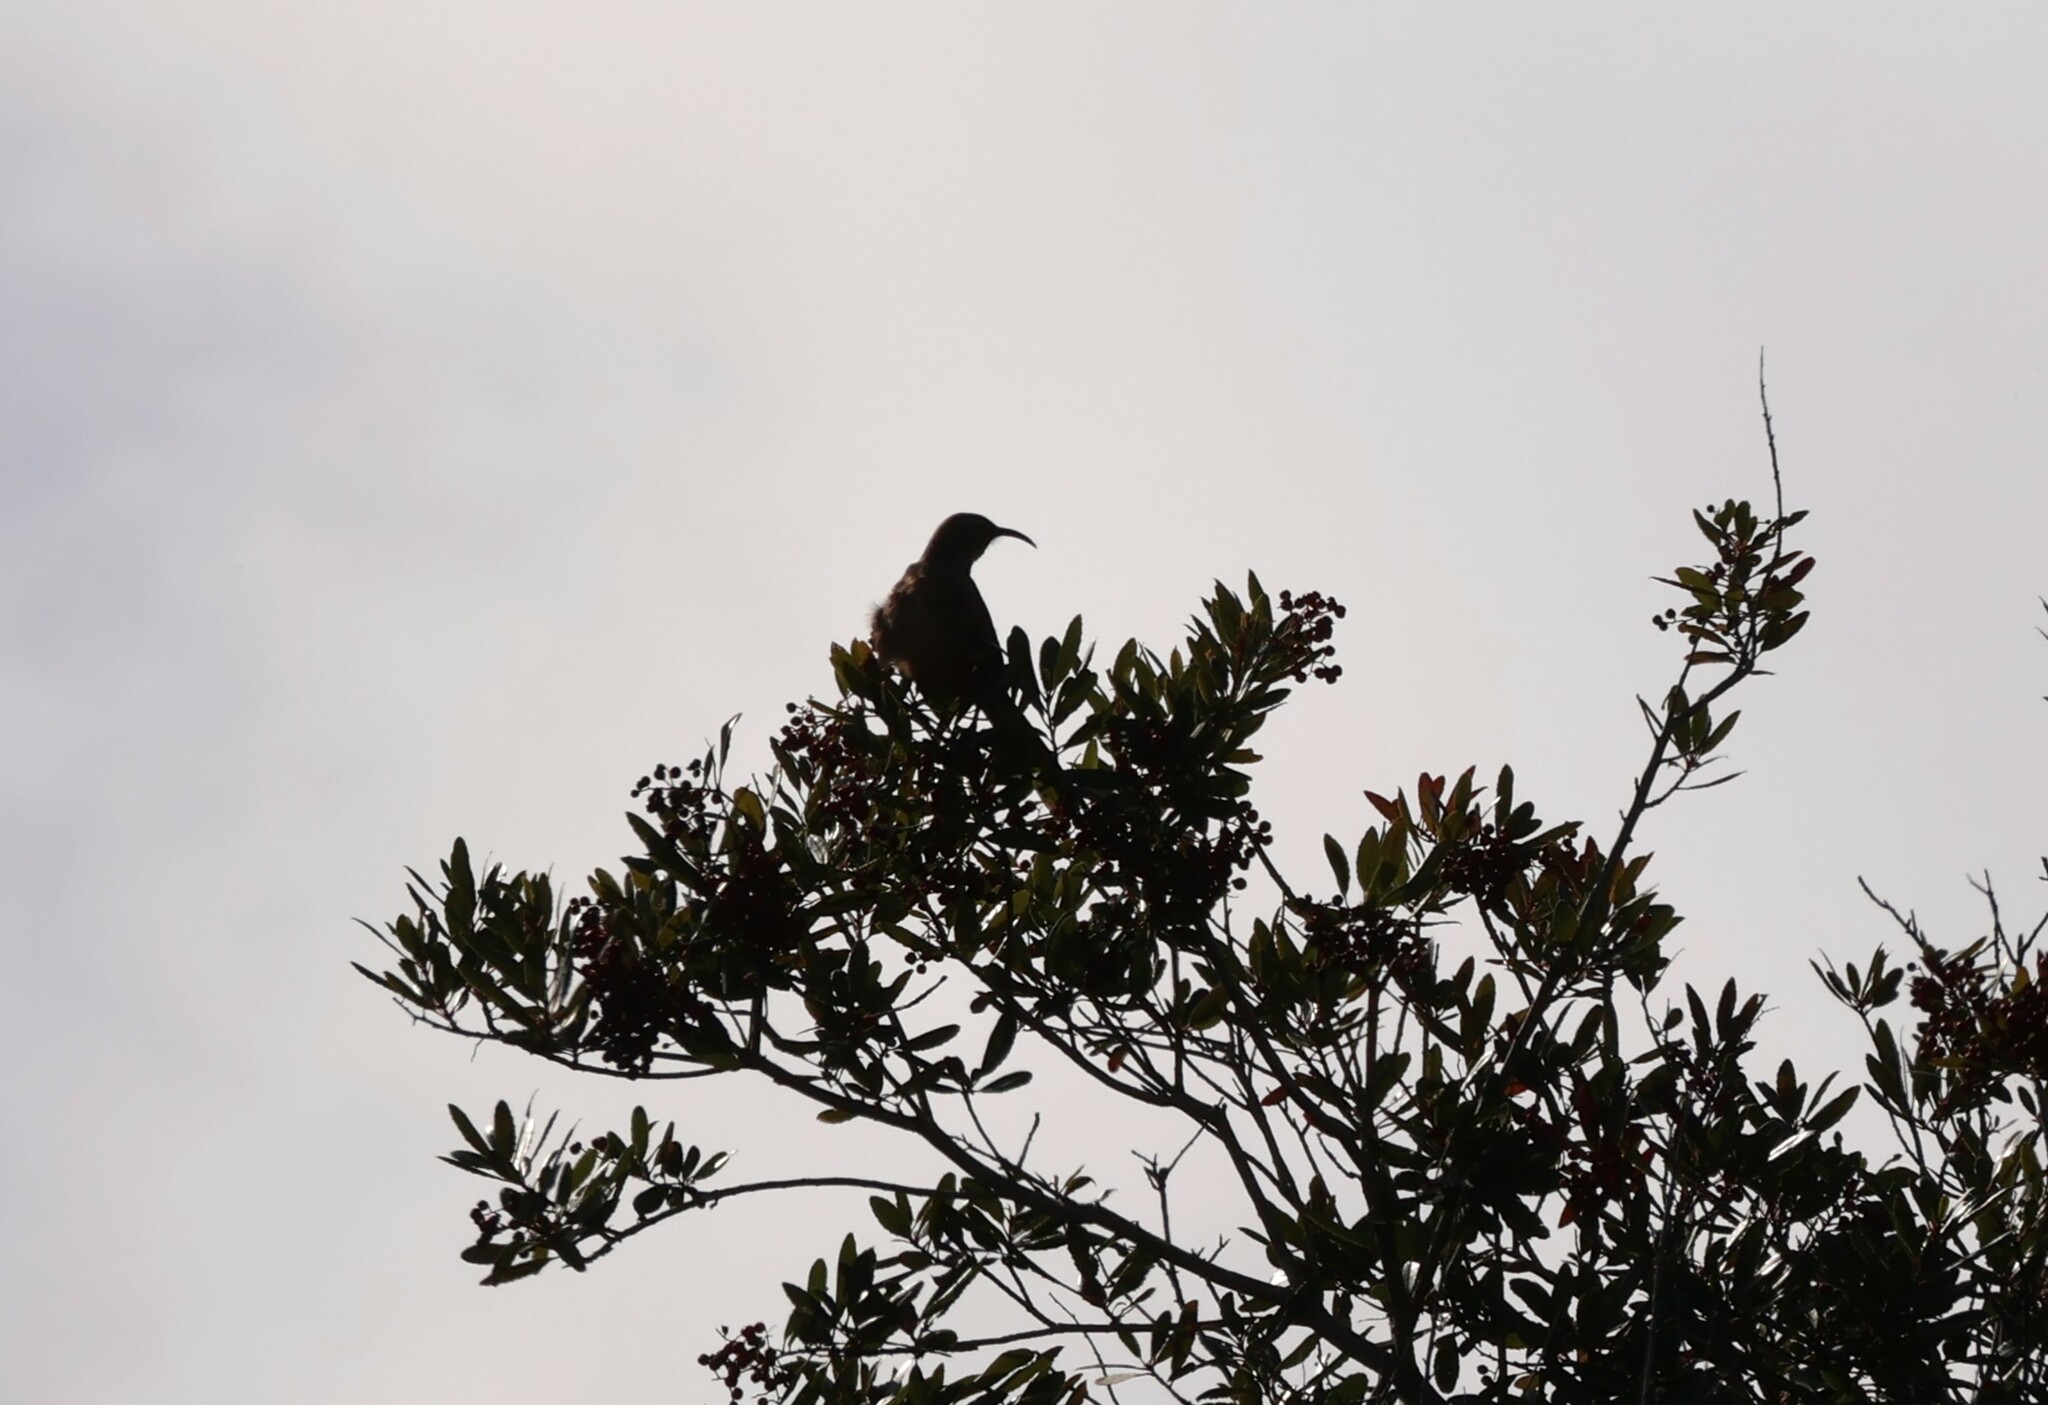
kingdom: Animalia
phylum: Chordata
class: Aves
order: Passeriformes
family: Mimidae
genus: Toxostoma
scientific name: Toxostoma redivivum
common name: California thrasher
